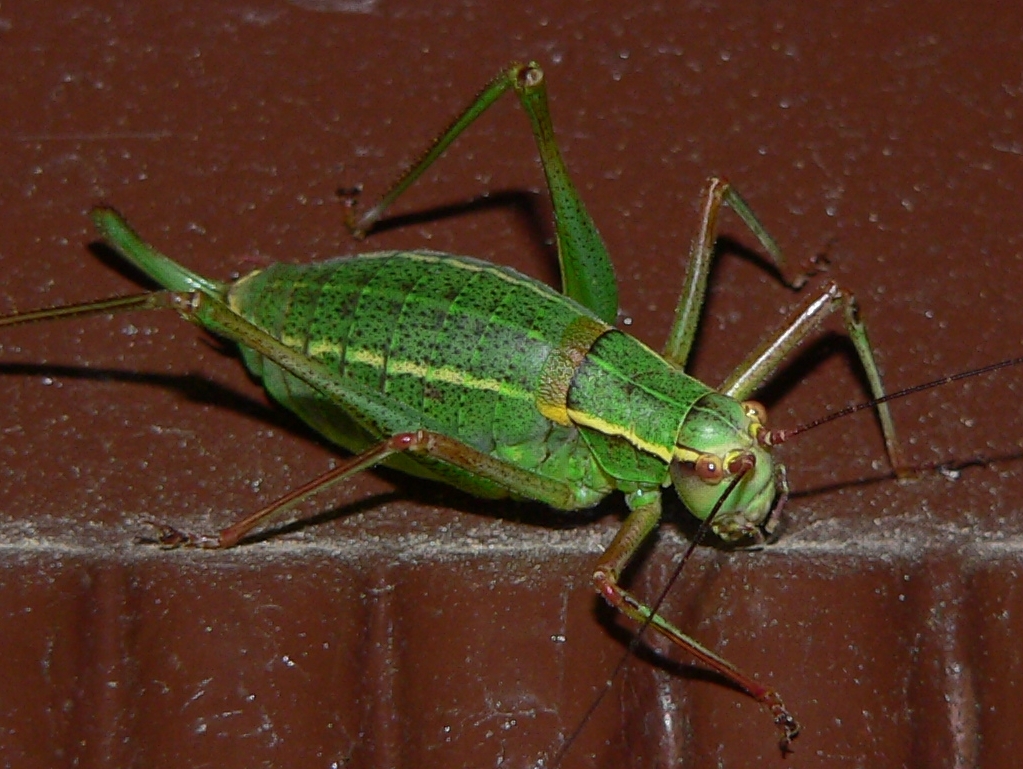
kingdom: Animalia
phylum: Arthropoda
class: Insecta
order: Orthoptera
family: Tettigoniidae
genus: Barbitistes
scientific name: Barbitistes obtusus
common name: Alpine saw bush-cricket
